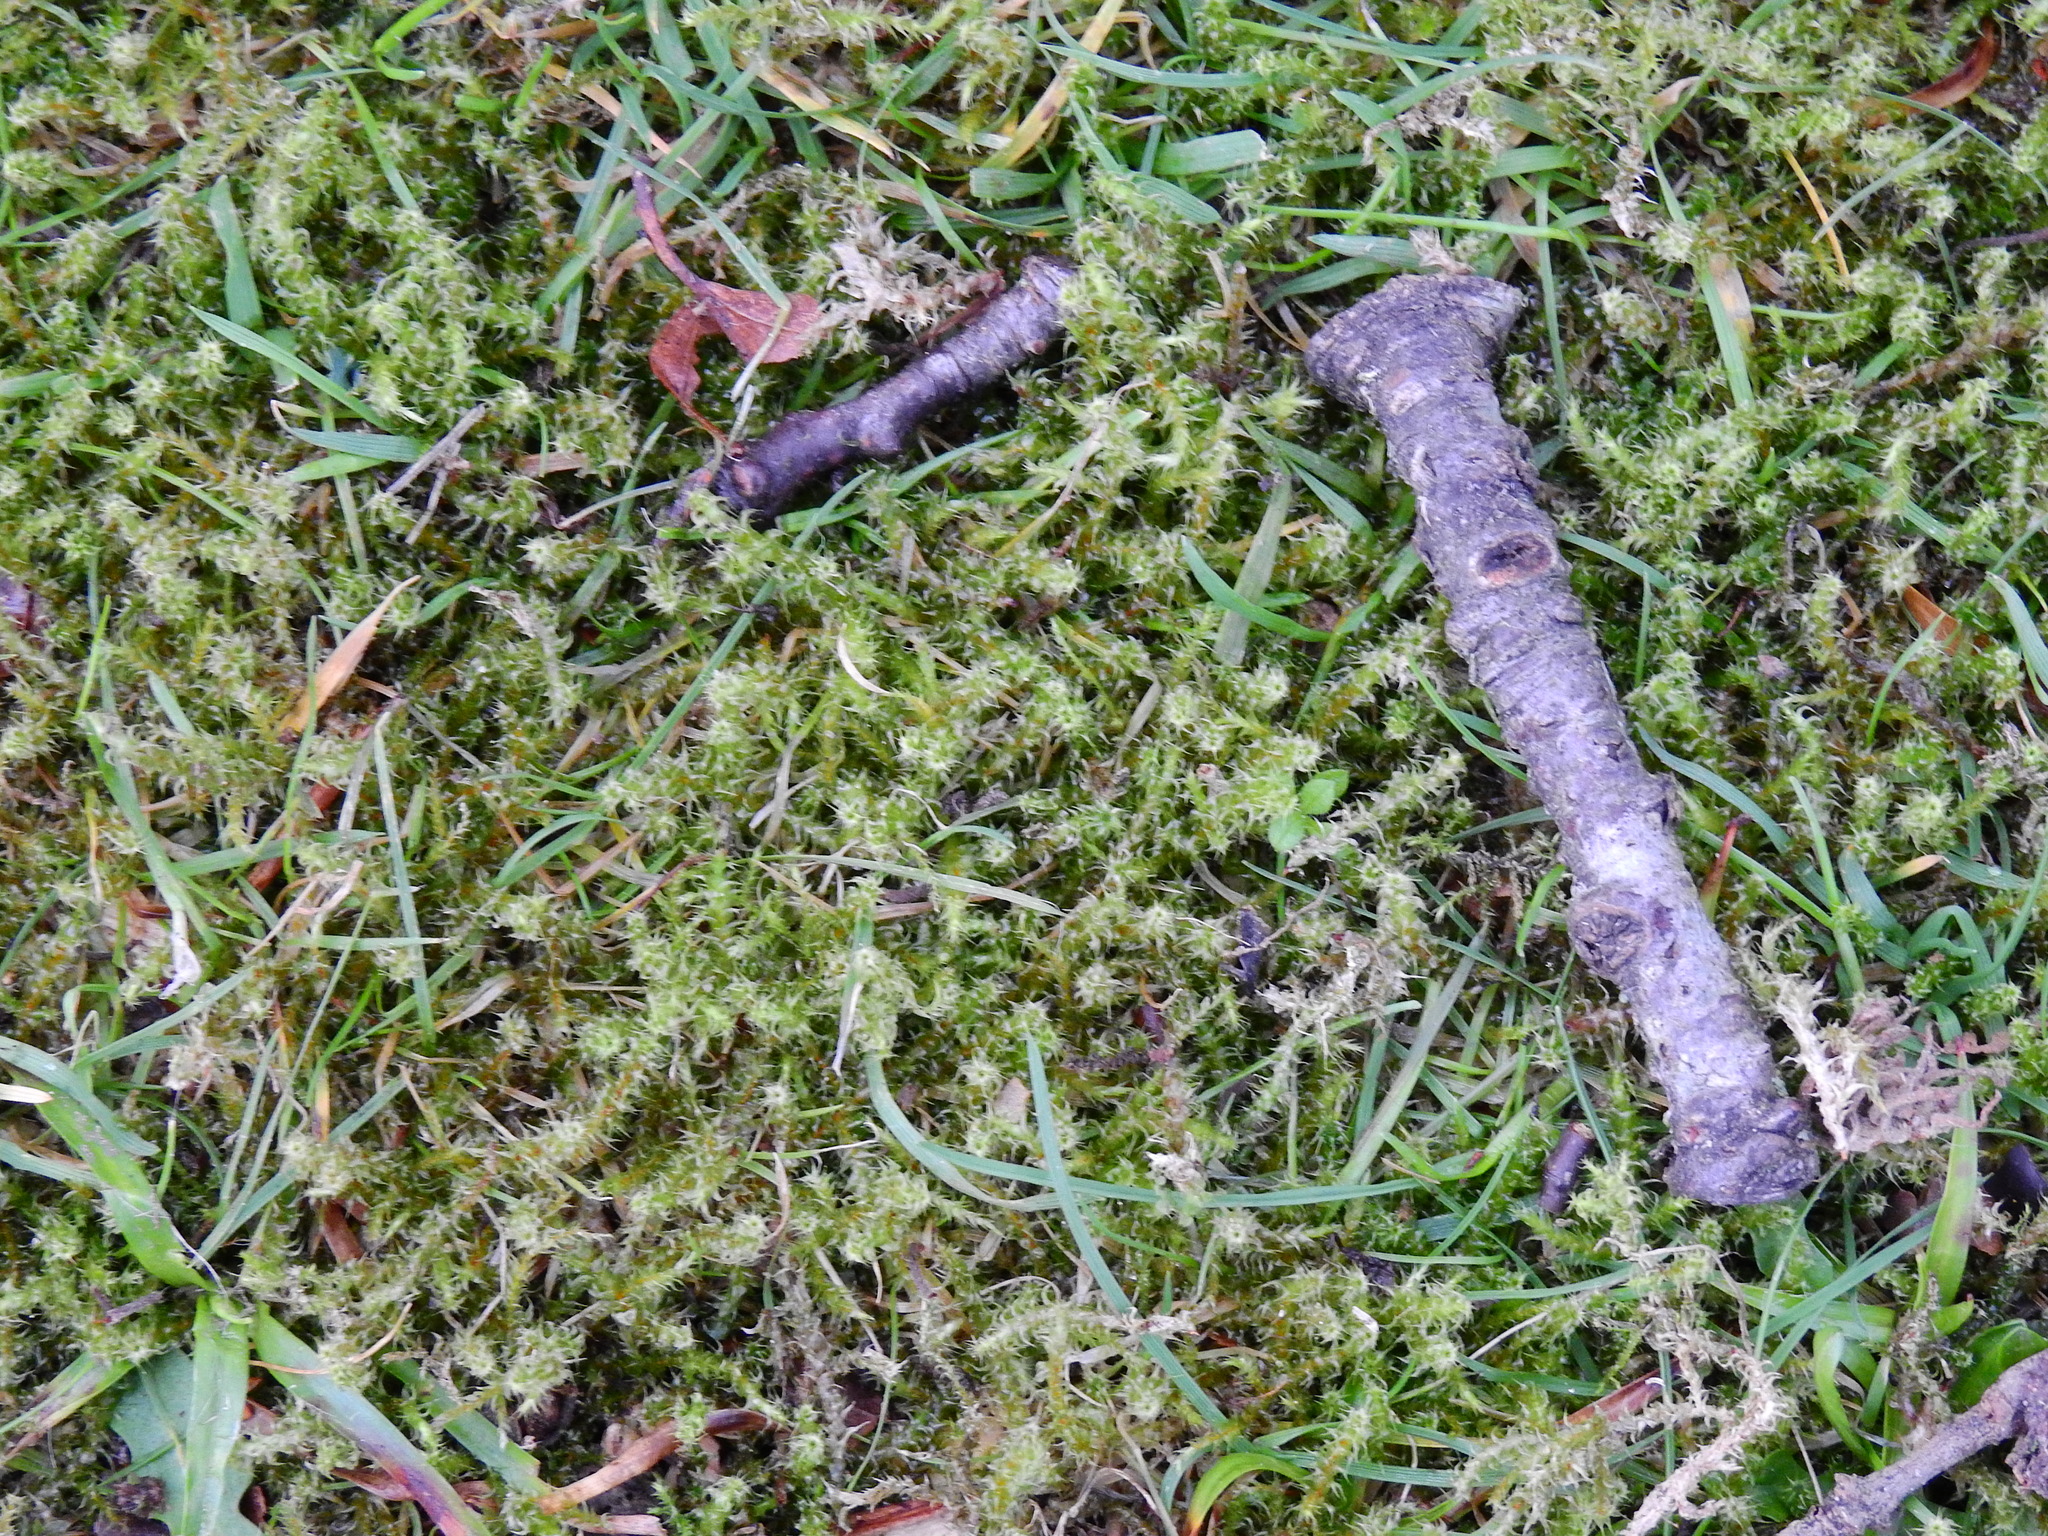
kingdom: Plantae
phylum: Bryophyta
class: Bryopsida
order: Hypnales
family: Hylocomiaceae
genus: Rhytidiadelphus
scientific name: Rhytidiadelphus squarrosus
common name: Springy turf-moss
